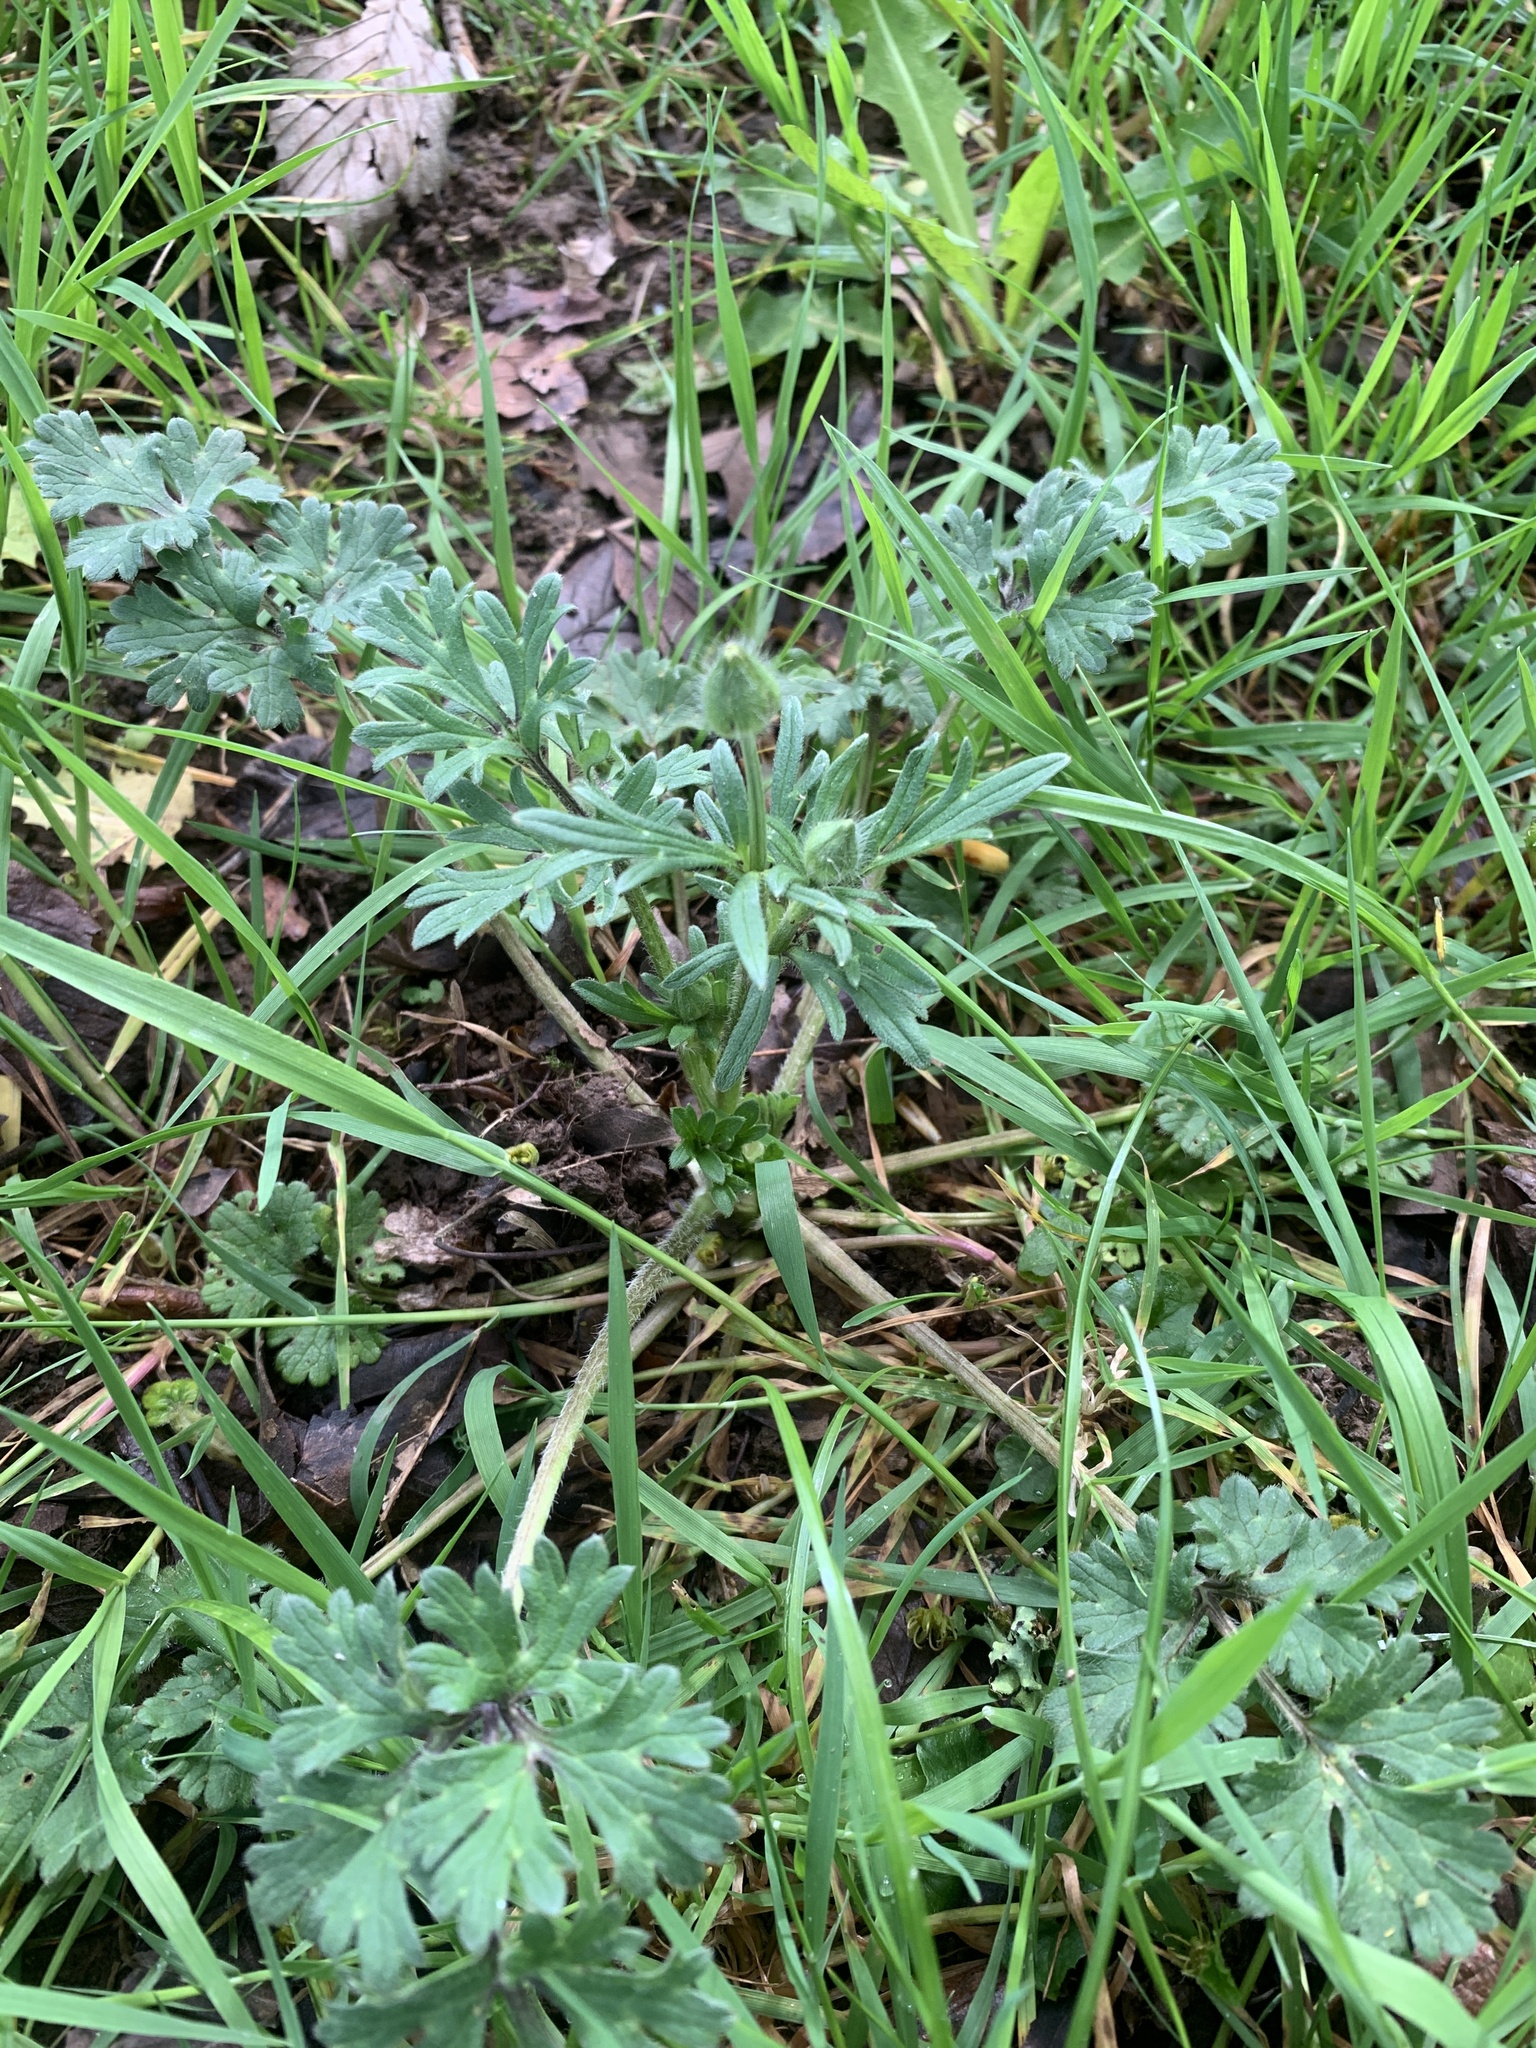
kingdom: Plantae
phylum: Tracheophyta
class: Magnoliopsida
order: Ranunculales
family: Ranunculaceae
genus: Ranunculus
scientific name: Ranunculus bulbosus
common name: Bulbous buttercup
